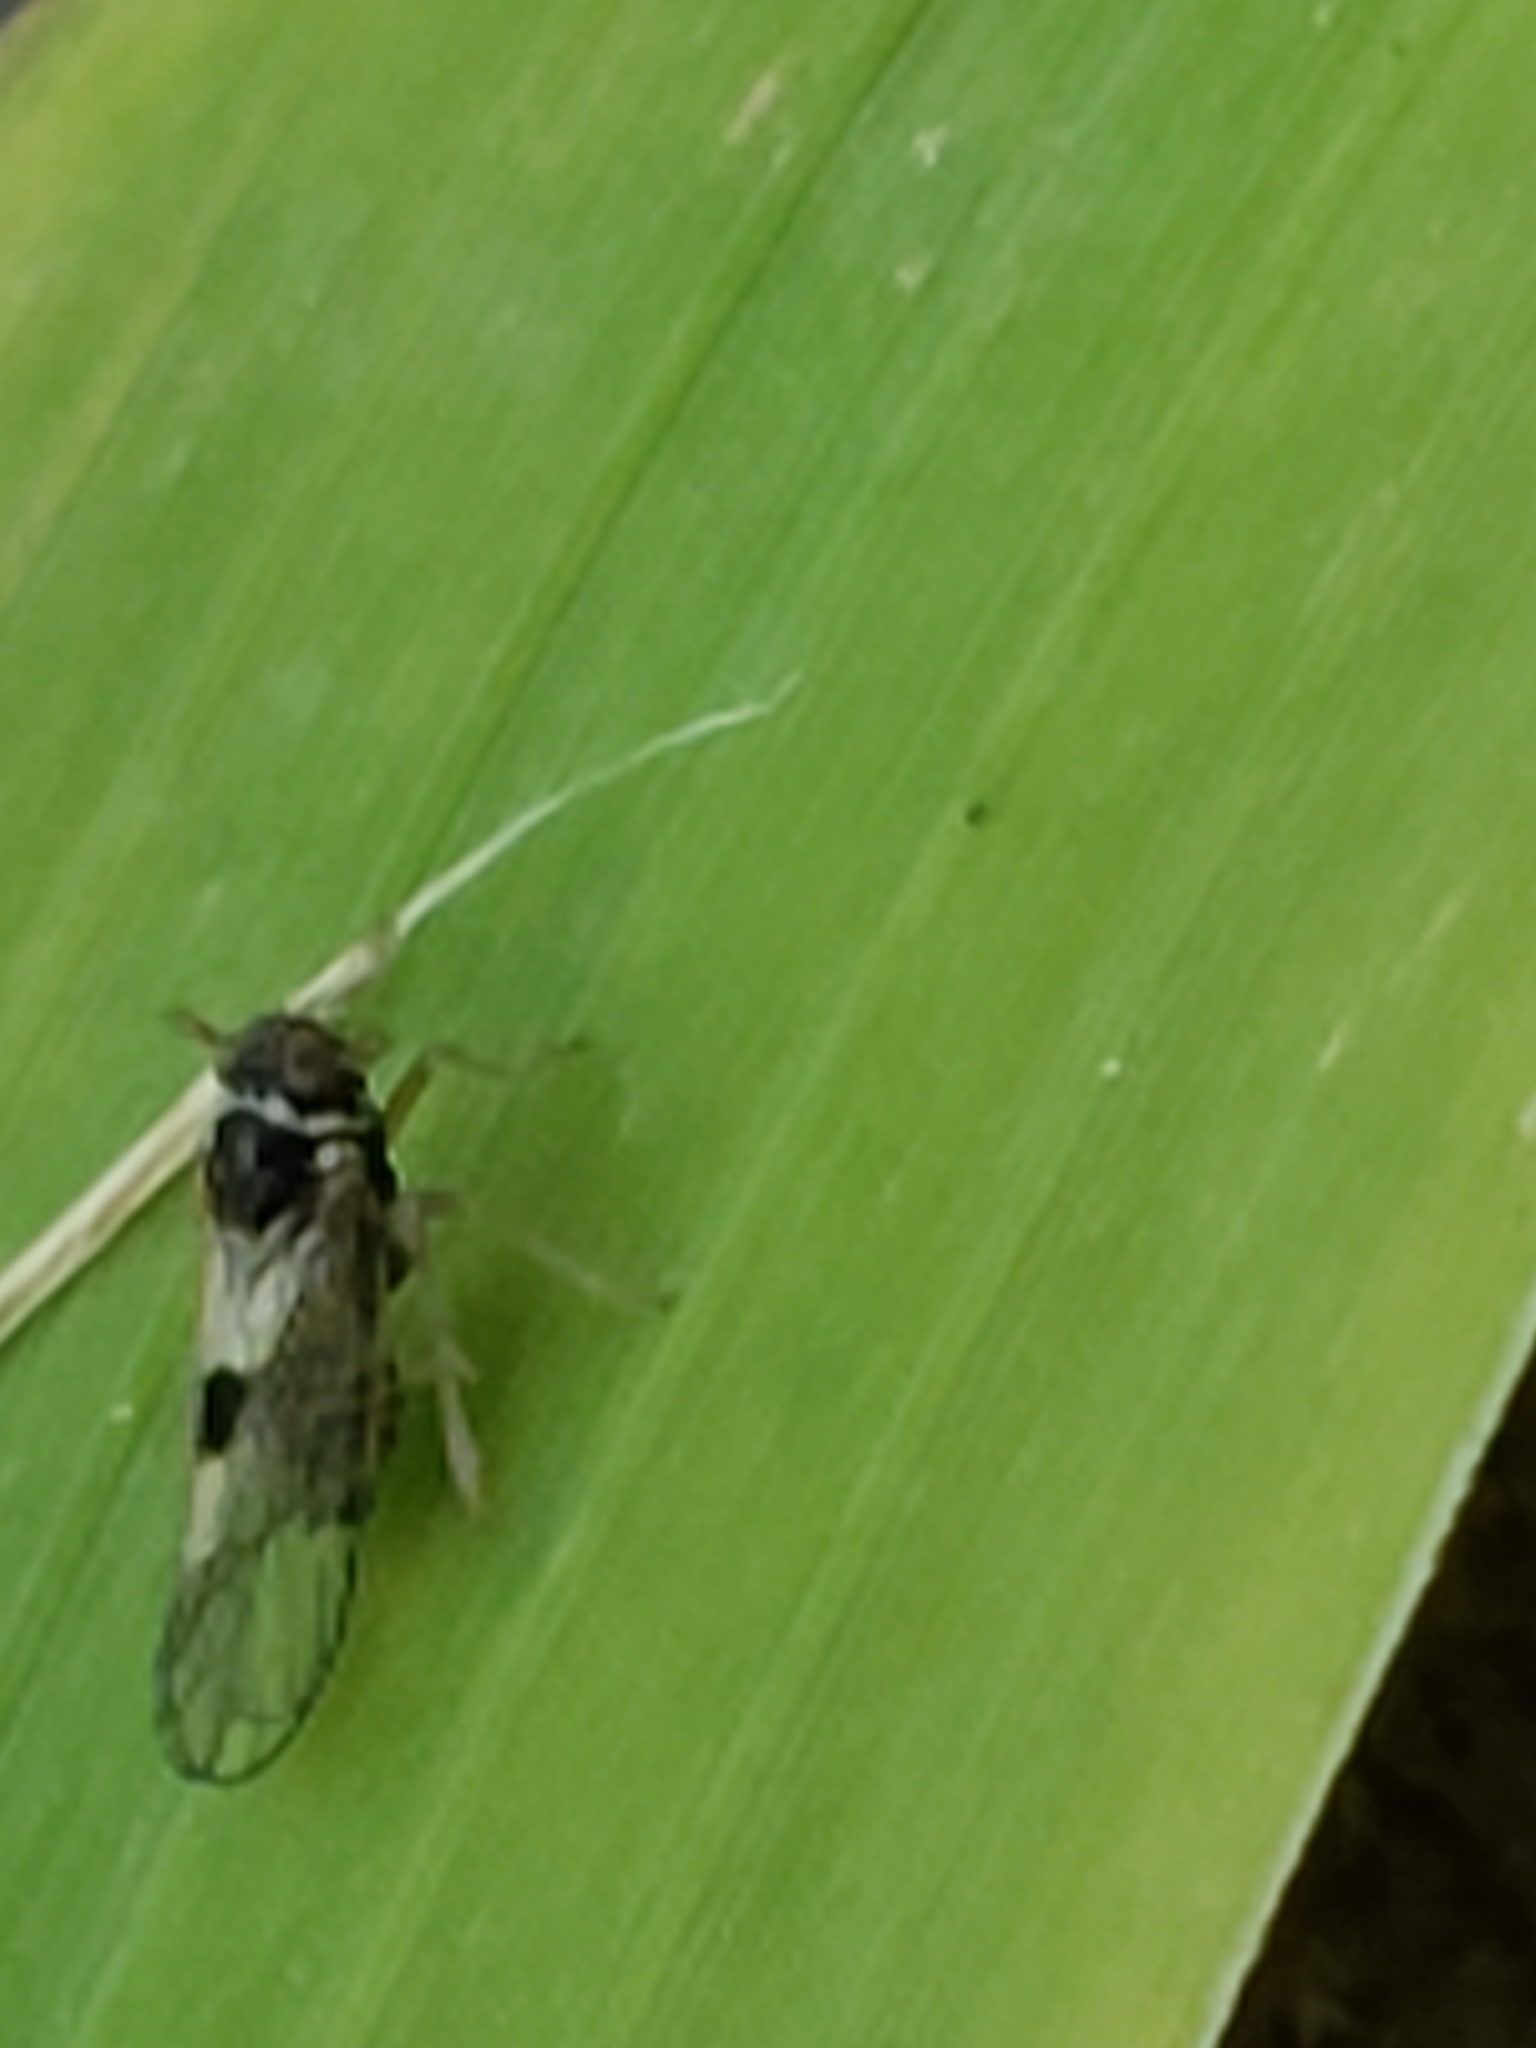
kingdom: Animalia
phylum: Arthropoda
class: Insecta
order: Hemiptera
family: Delphacidae
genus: Chionomus
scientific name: Chionomus
